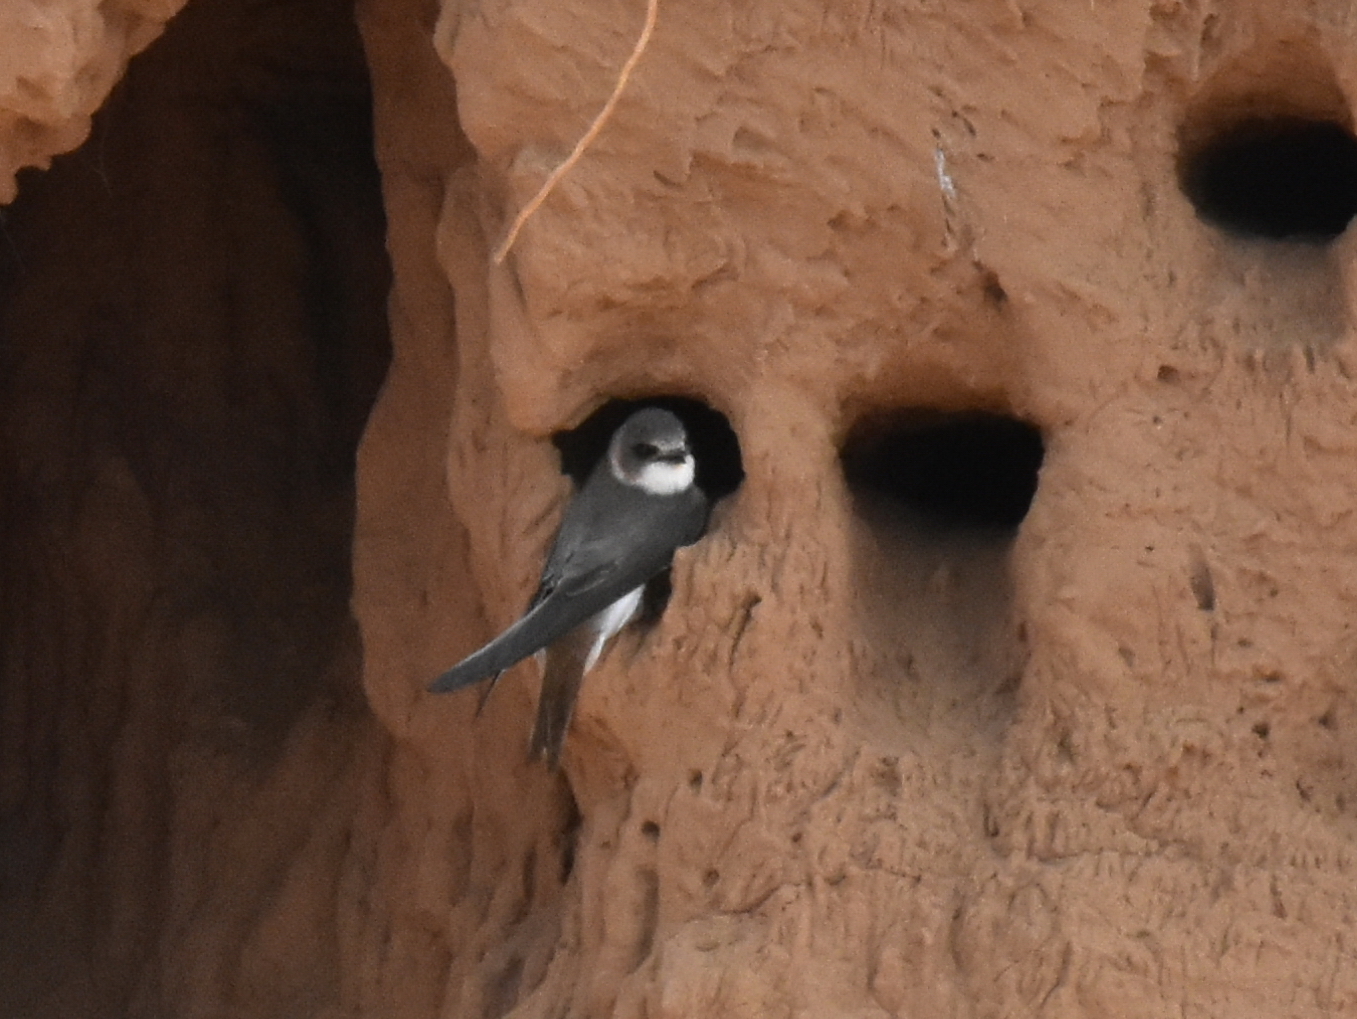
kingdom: Animalia
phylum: Chordata
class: Aves
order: Passeriformes
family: Hirundinidae
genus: Riparia
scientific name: Riparia riparia
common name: Sand martin
